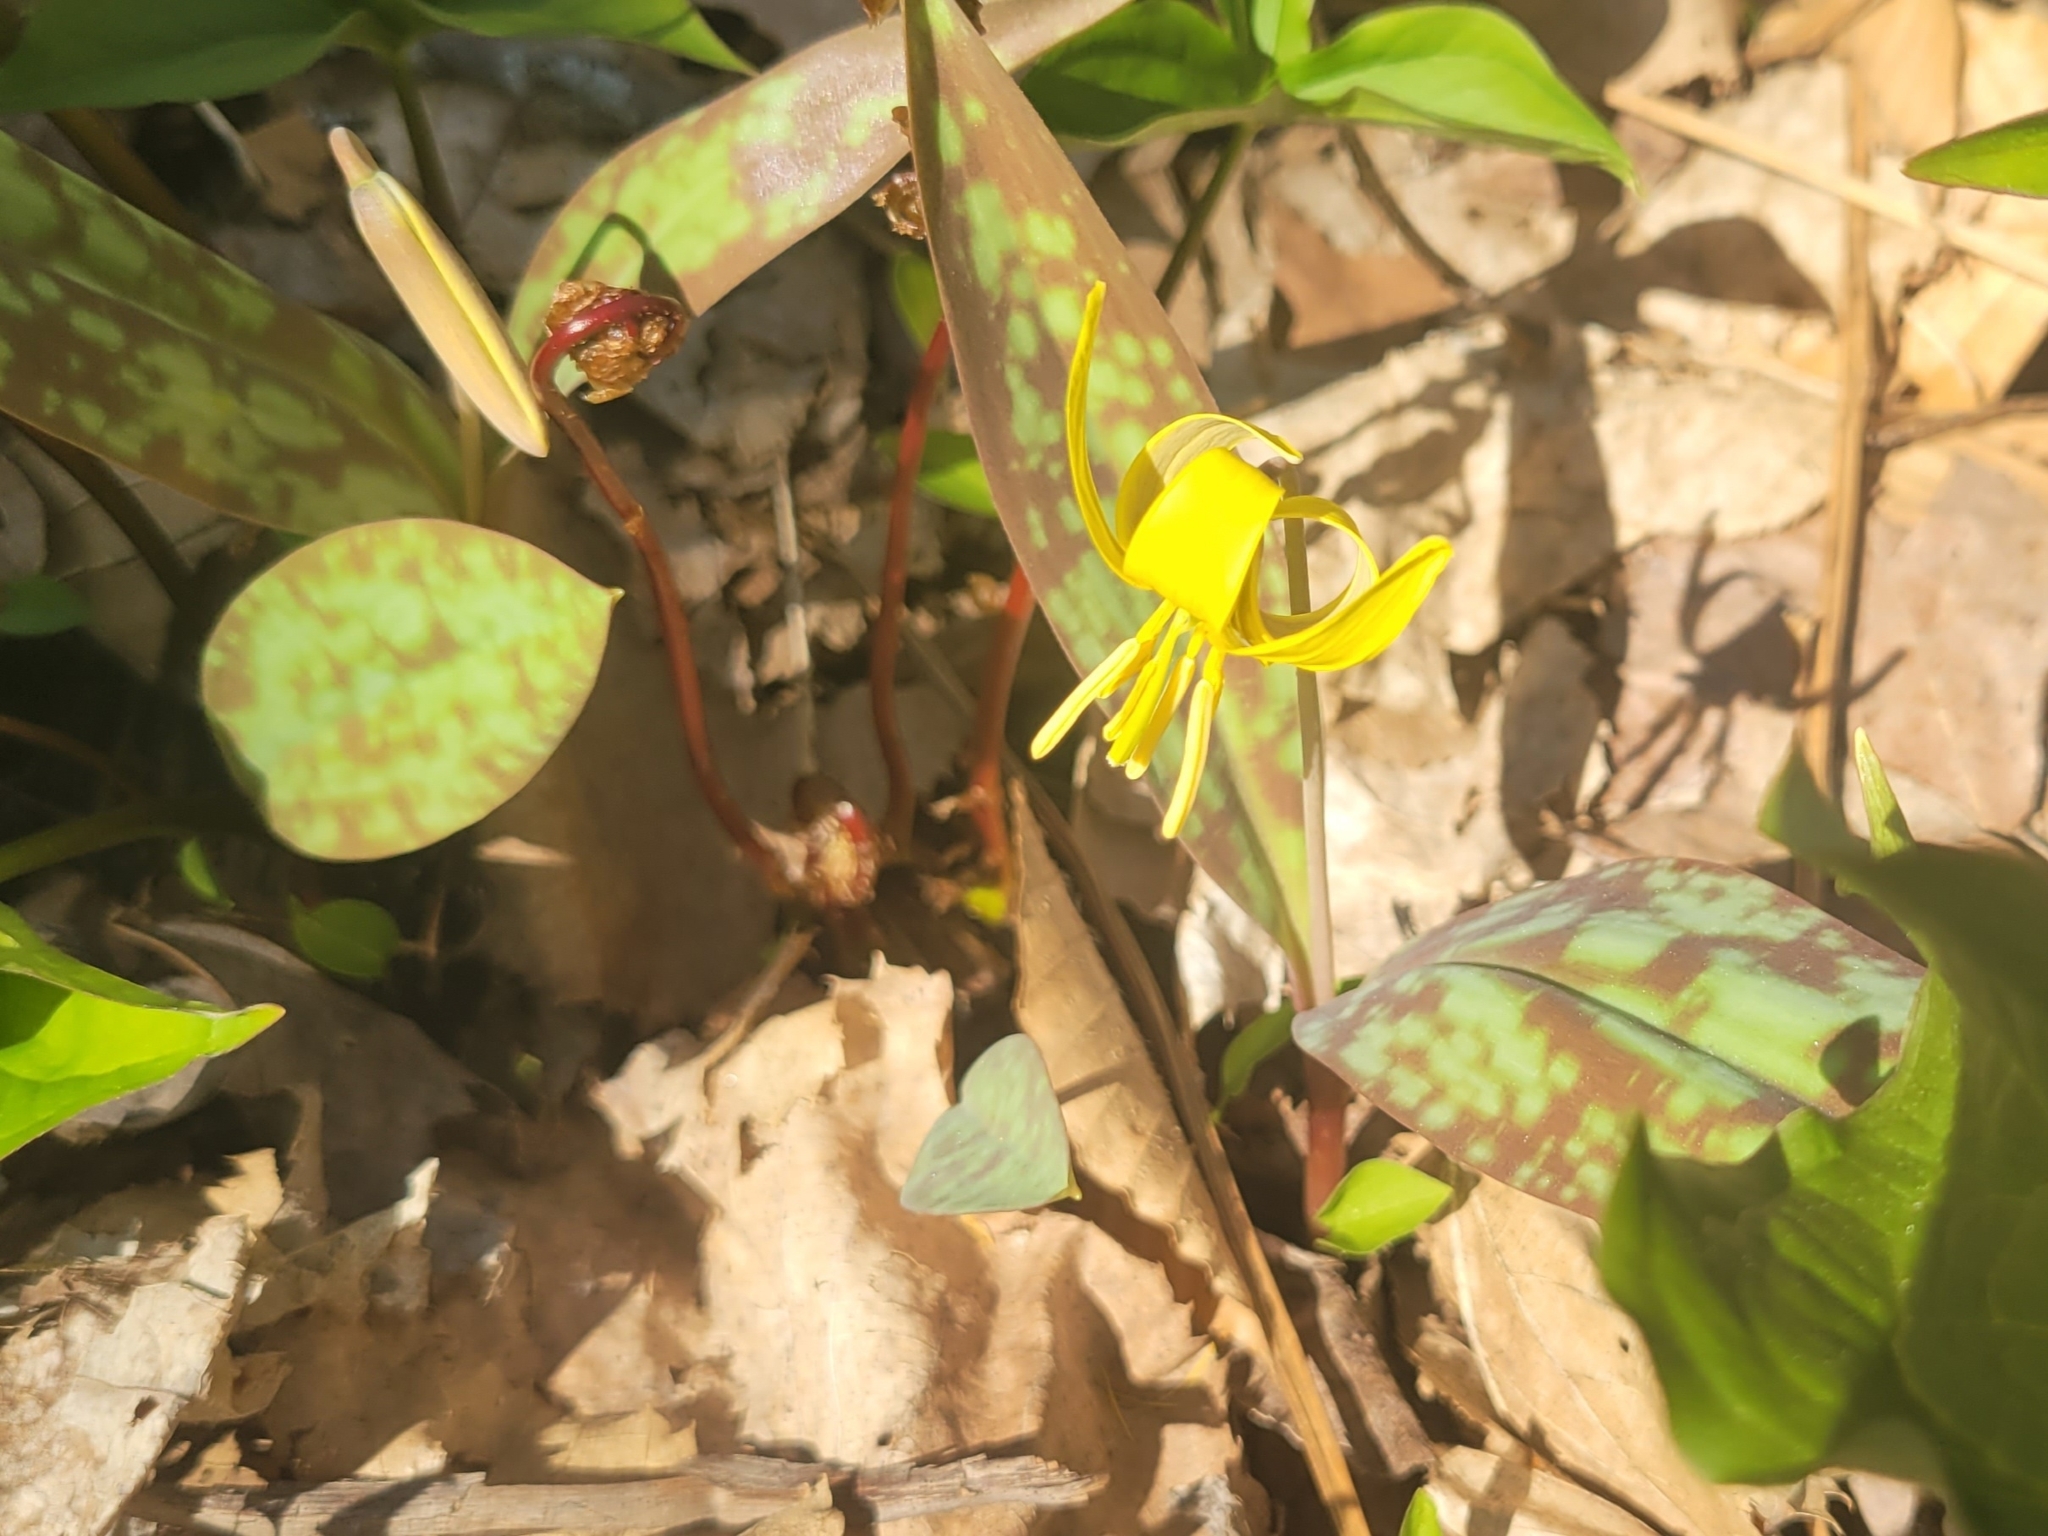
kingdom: Plantae
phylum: Tracheophyta
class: Liliopsida
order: Liliales
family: Liliaceae
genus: Erythronium
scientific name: Erythronium americanum
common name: Yellow adder's-tongue
